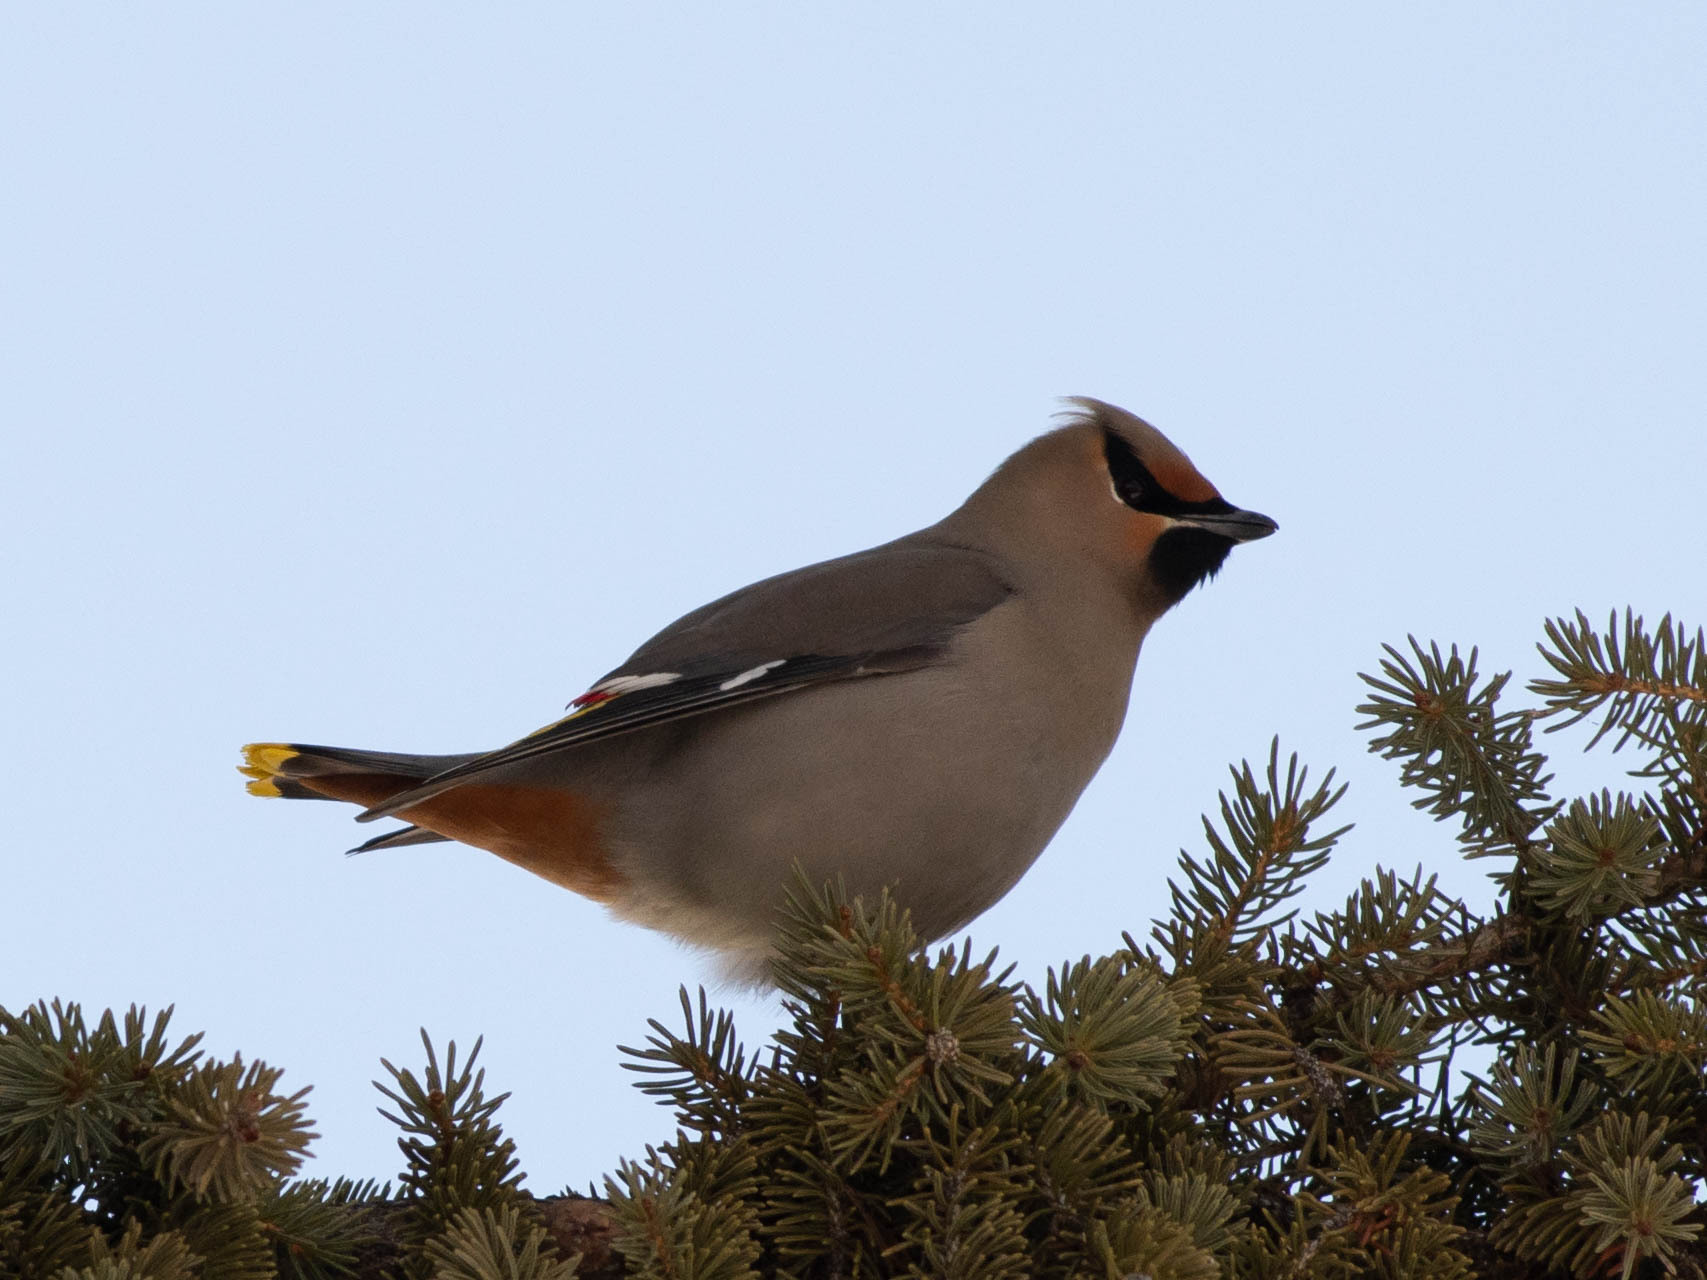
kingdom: Animalia
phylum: Chordata
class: Aves
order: Passeriformes
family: Bombycillidae
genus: Bombycilla
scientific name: Bombycilla garrulus
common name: Bohemian waxwing
